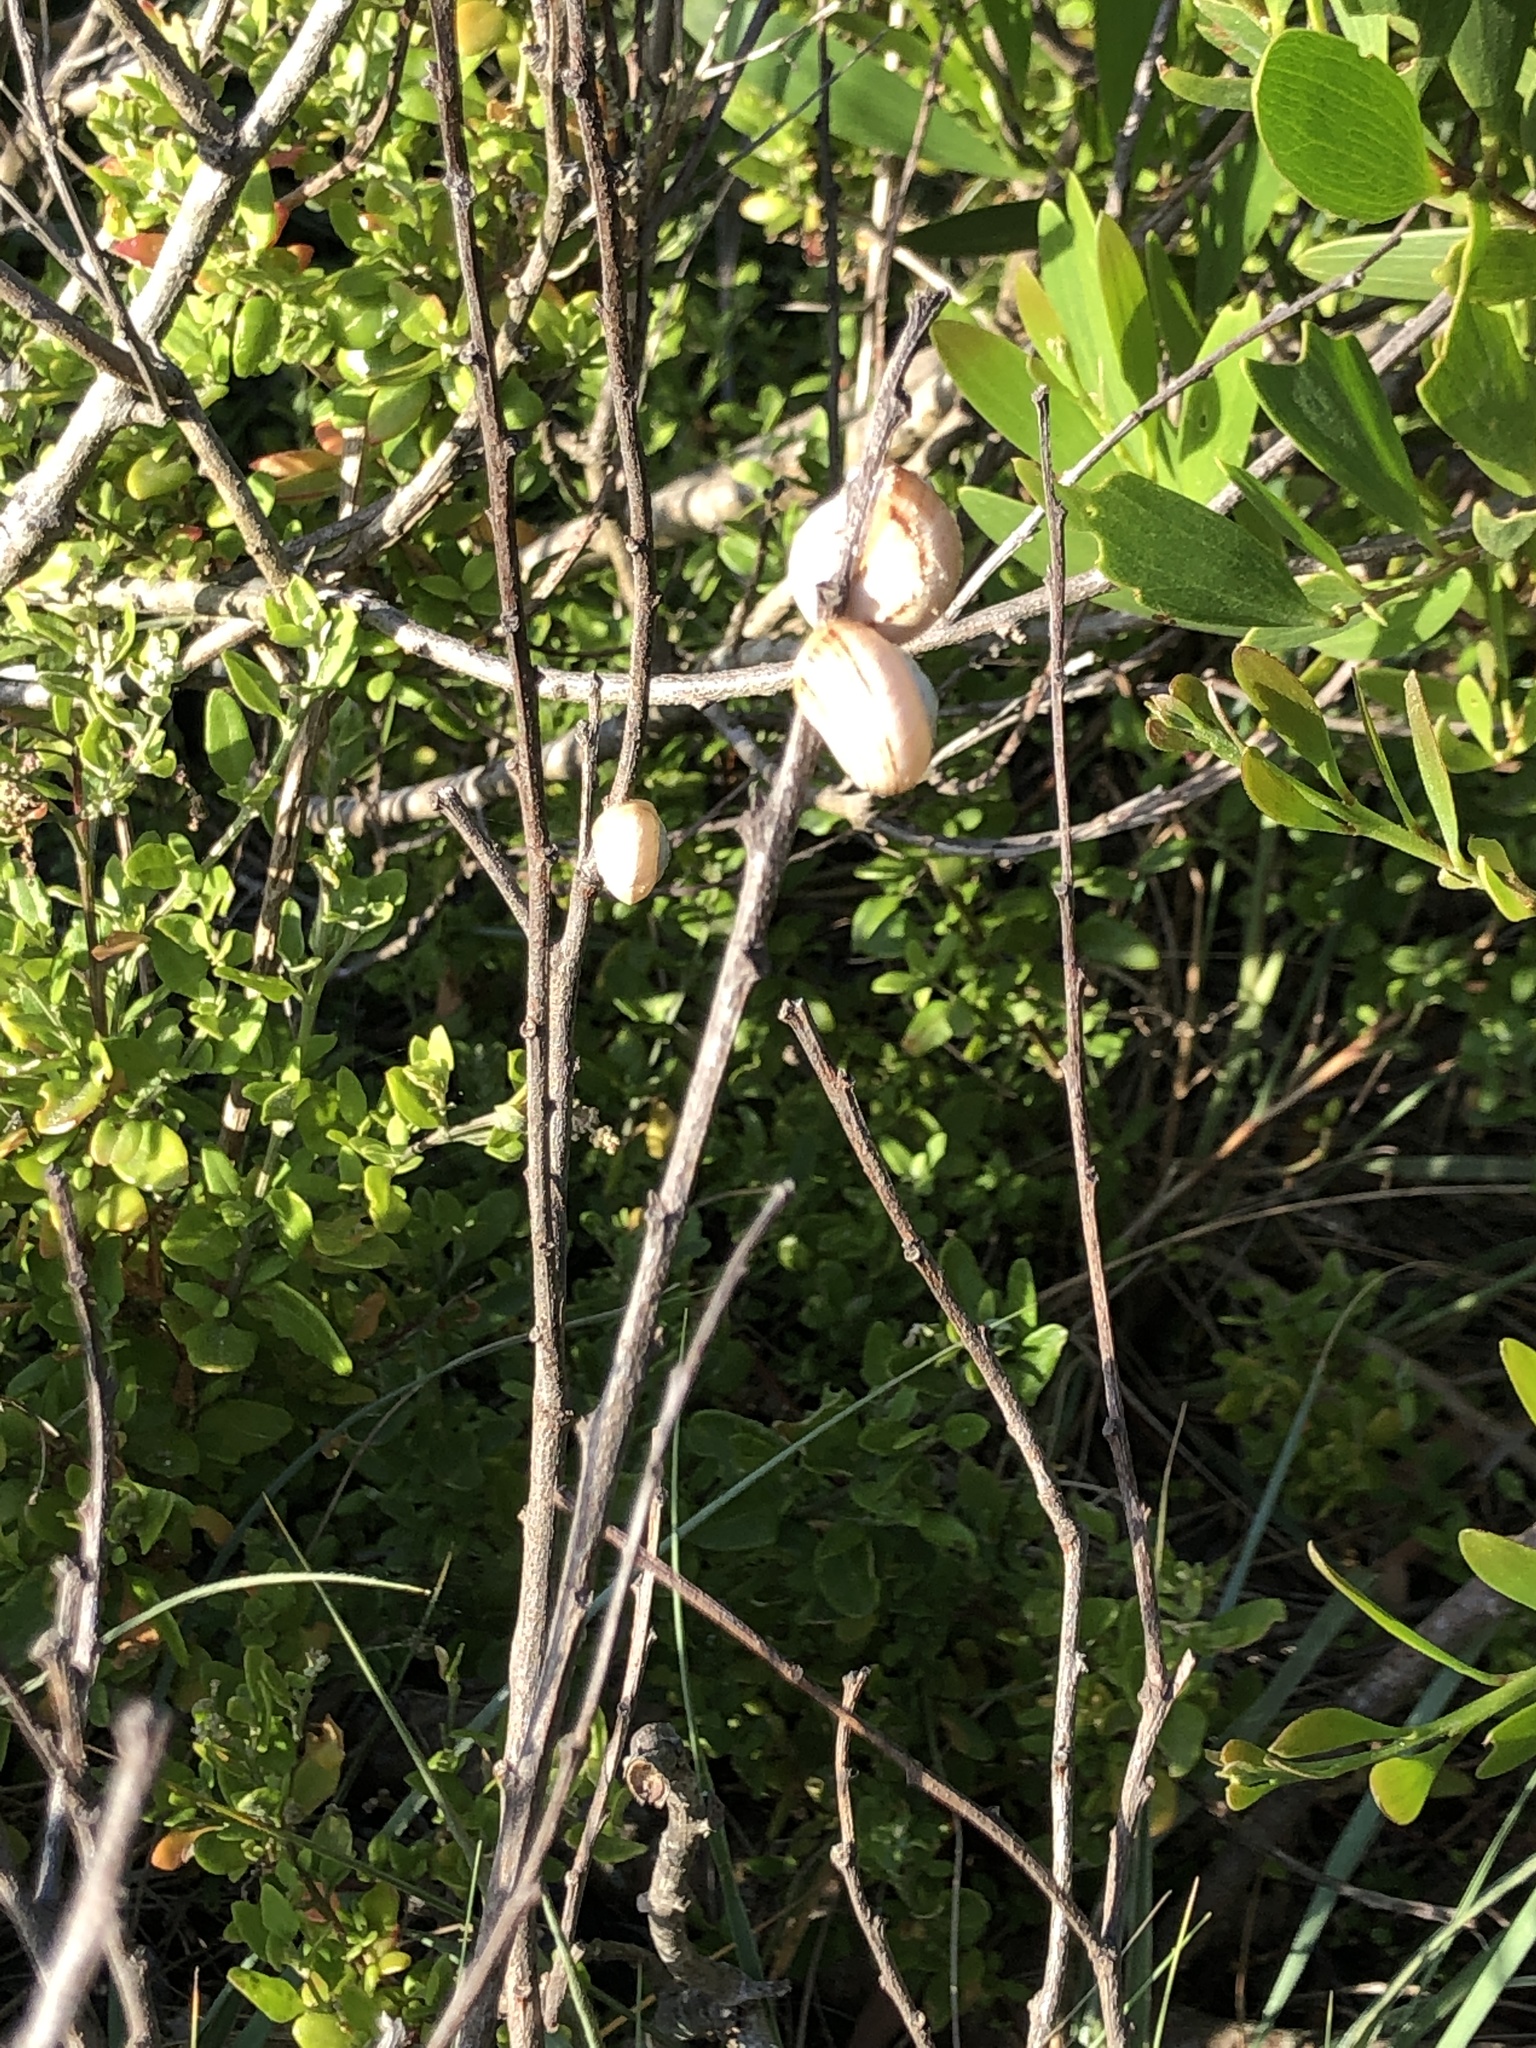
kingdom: Animalia
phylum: Mollusca
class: Gastropoda
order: Stylommatophora
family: Helicidae
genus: Theba
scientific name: Theba pisana
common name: White snail
